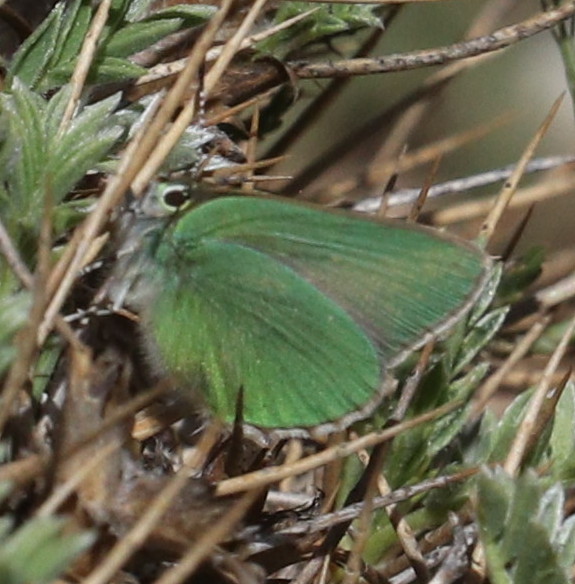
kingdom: Animalia
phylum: Arthropoda
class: Insecta
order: Lepidoptera
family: Lycaenidae
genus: Callophrys
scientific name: Callophrys rubi
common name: Green hairstreak
